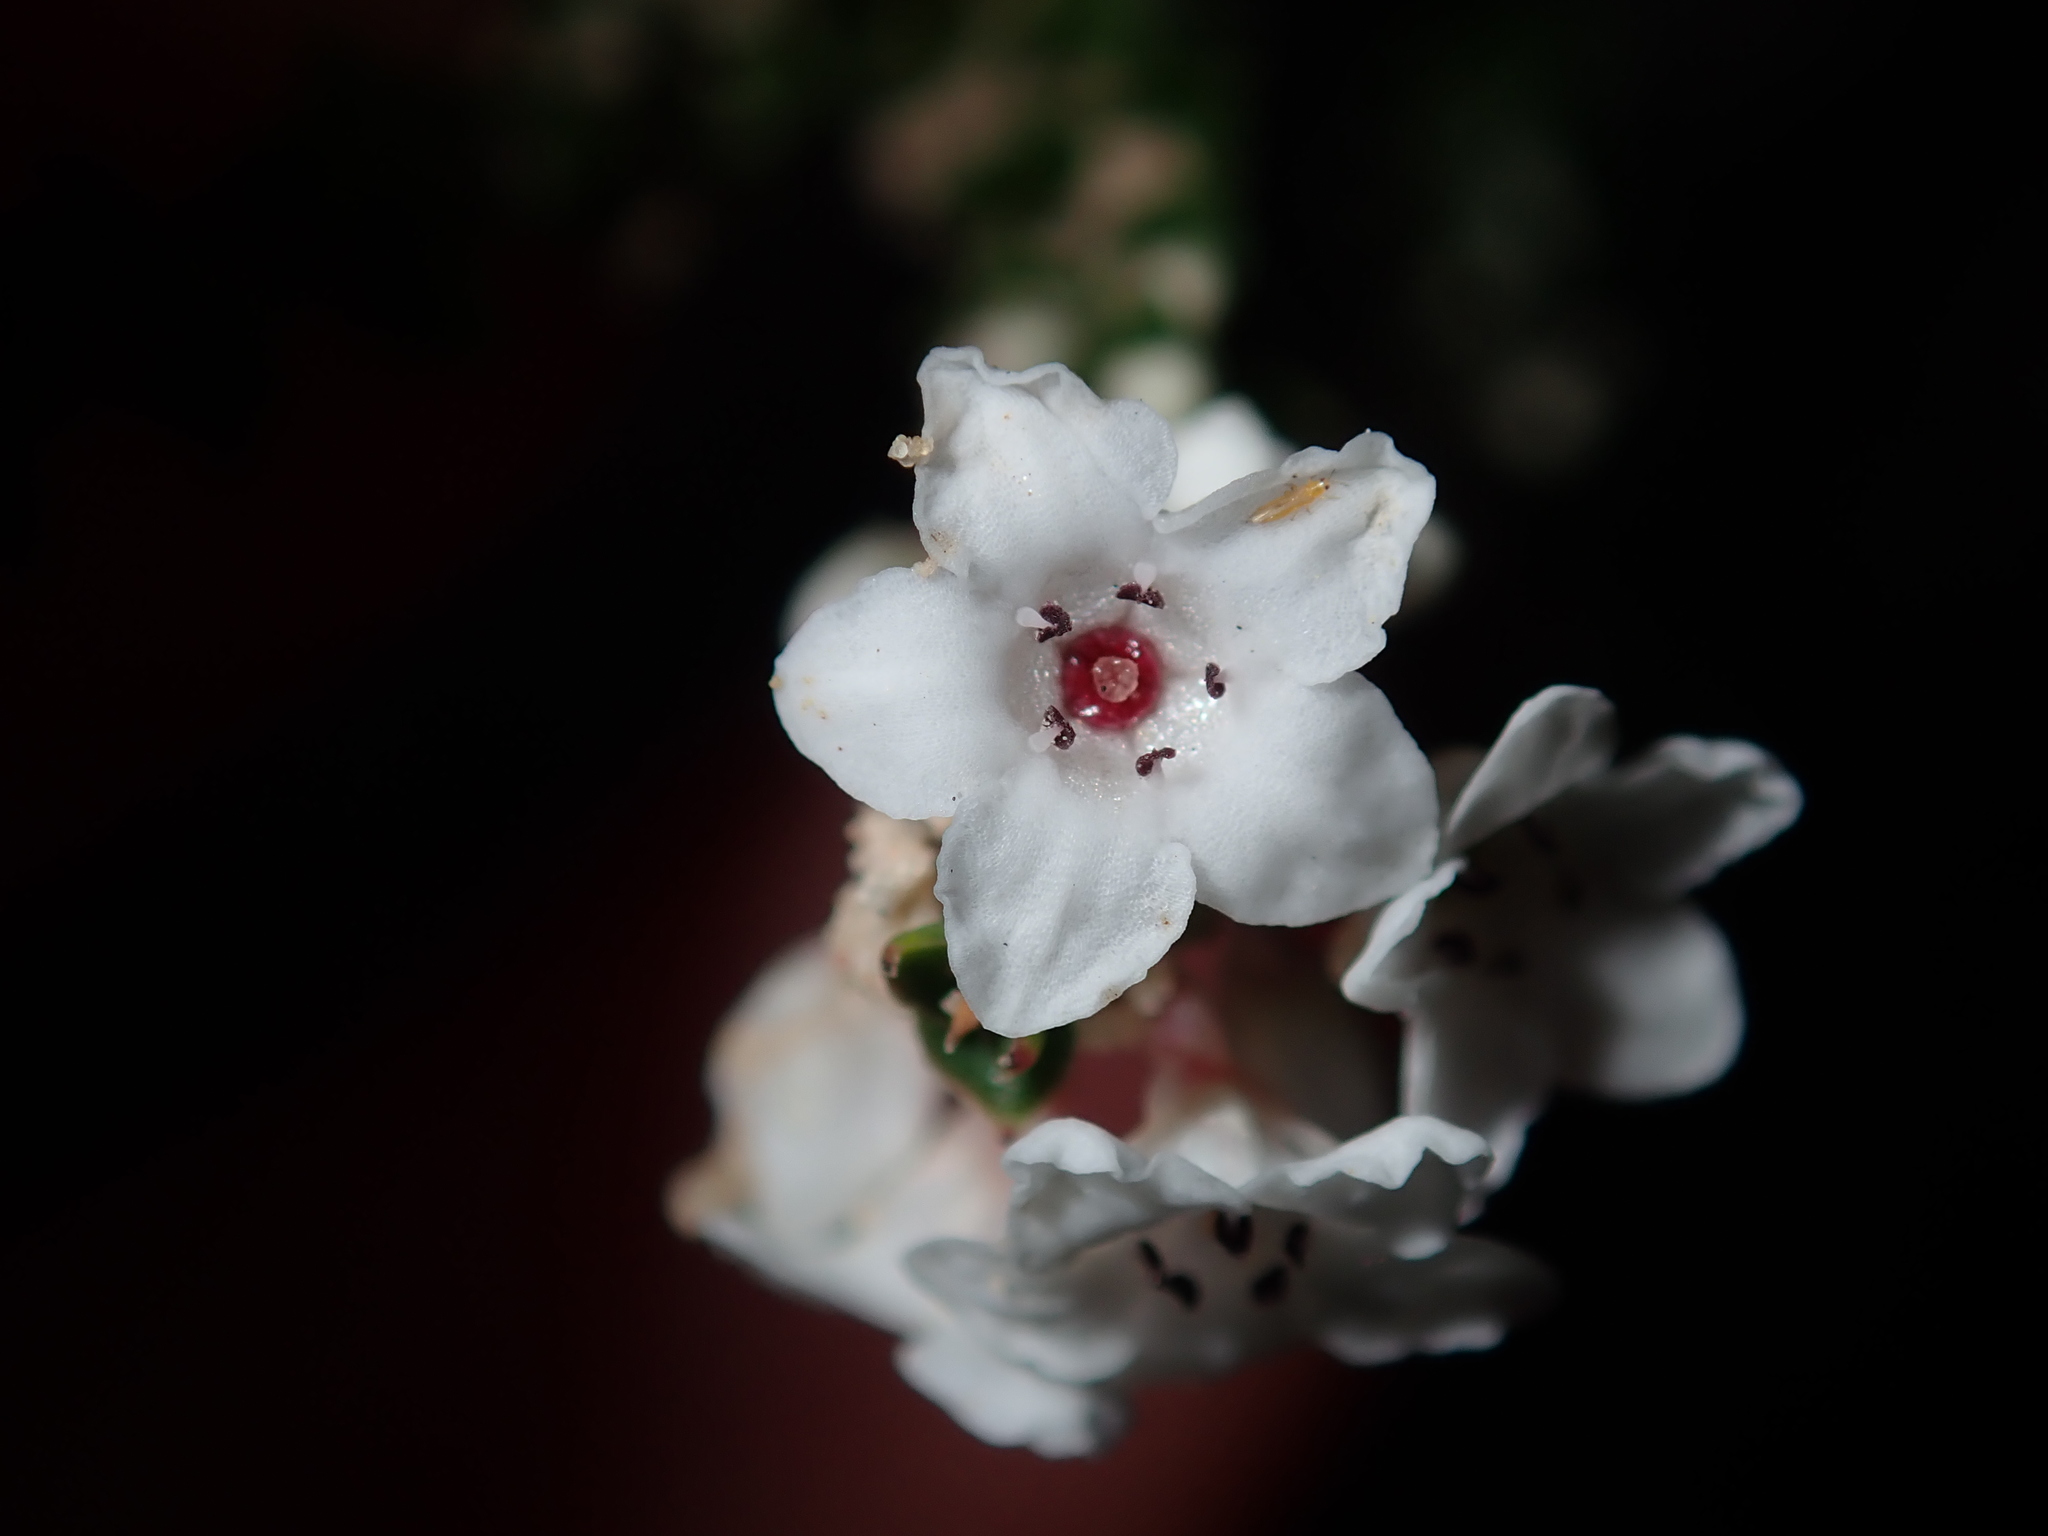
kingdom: Plantae
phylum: Tracheophyta
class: Magnoliopsida
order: Ericales
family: Ericaceae
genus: Epacris
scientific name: Epacris microphylla
